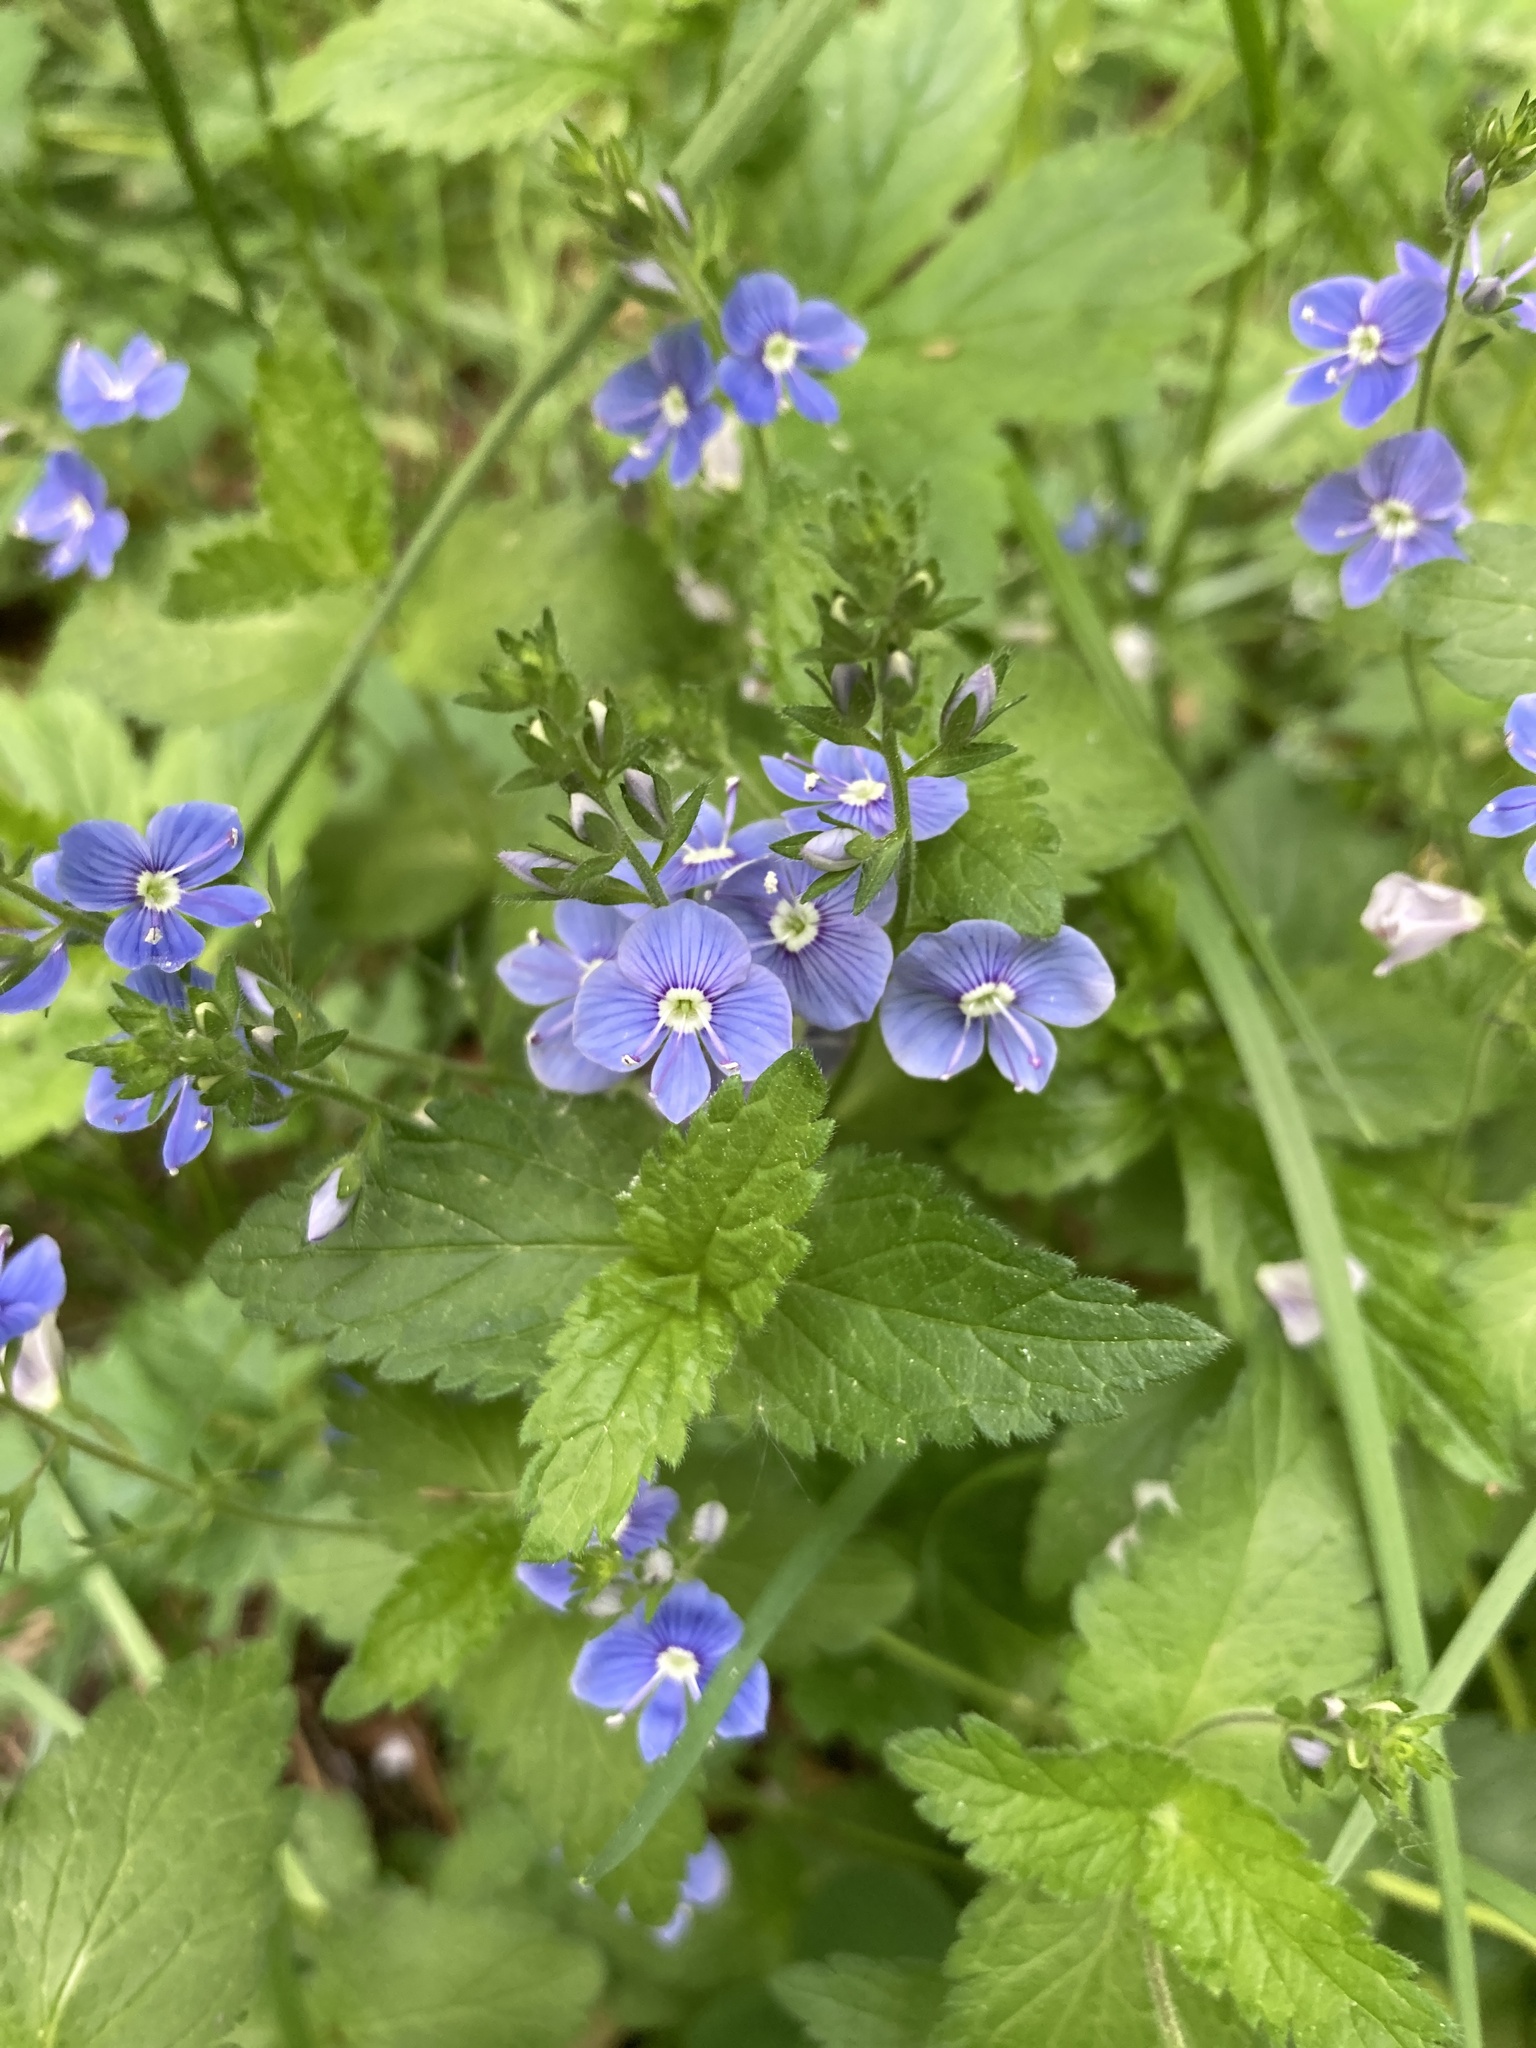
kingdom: Plantae
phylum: Tracheophyta
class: Magnoliopsida
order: Lamiales
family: Plantaginaceae
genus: Veronica
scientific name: Veronica chamaedrys
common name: Germander speedwell
